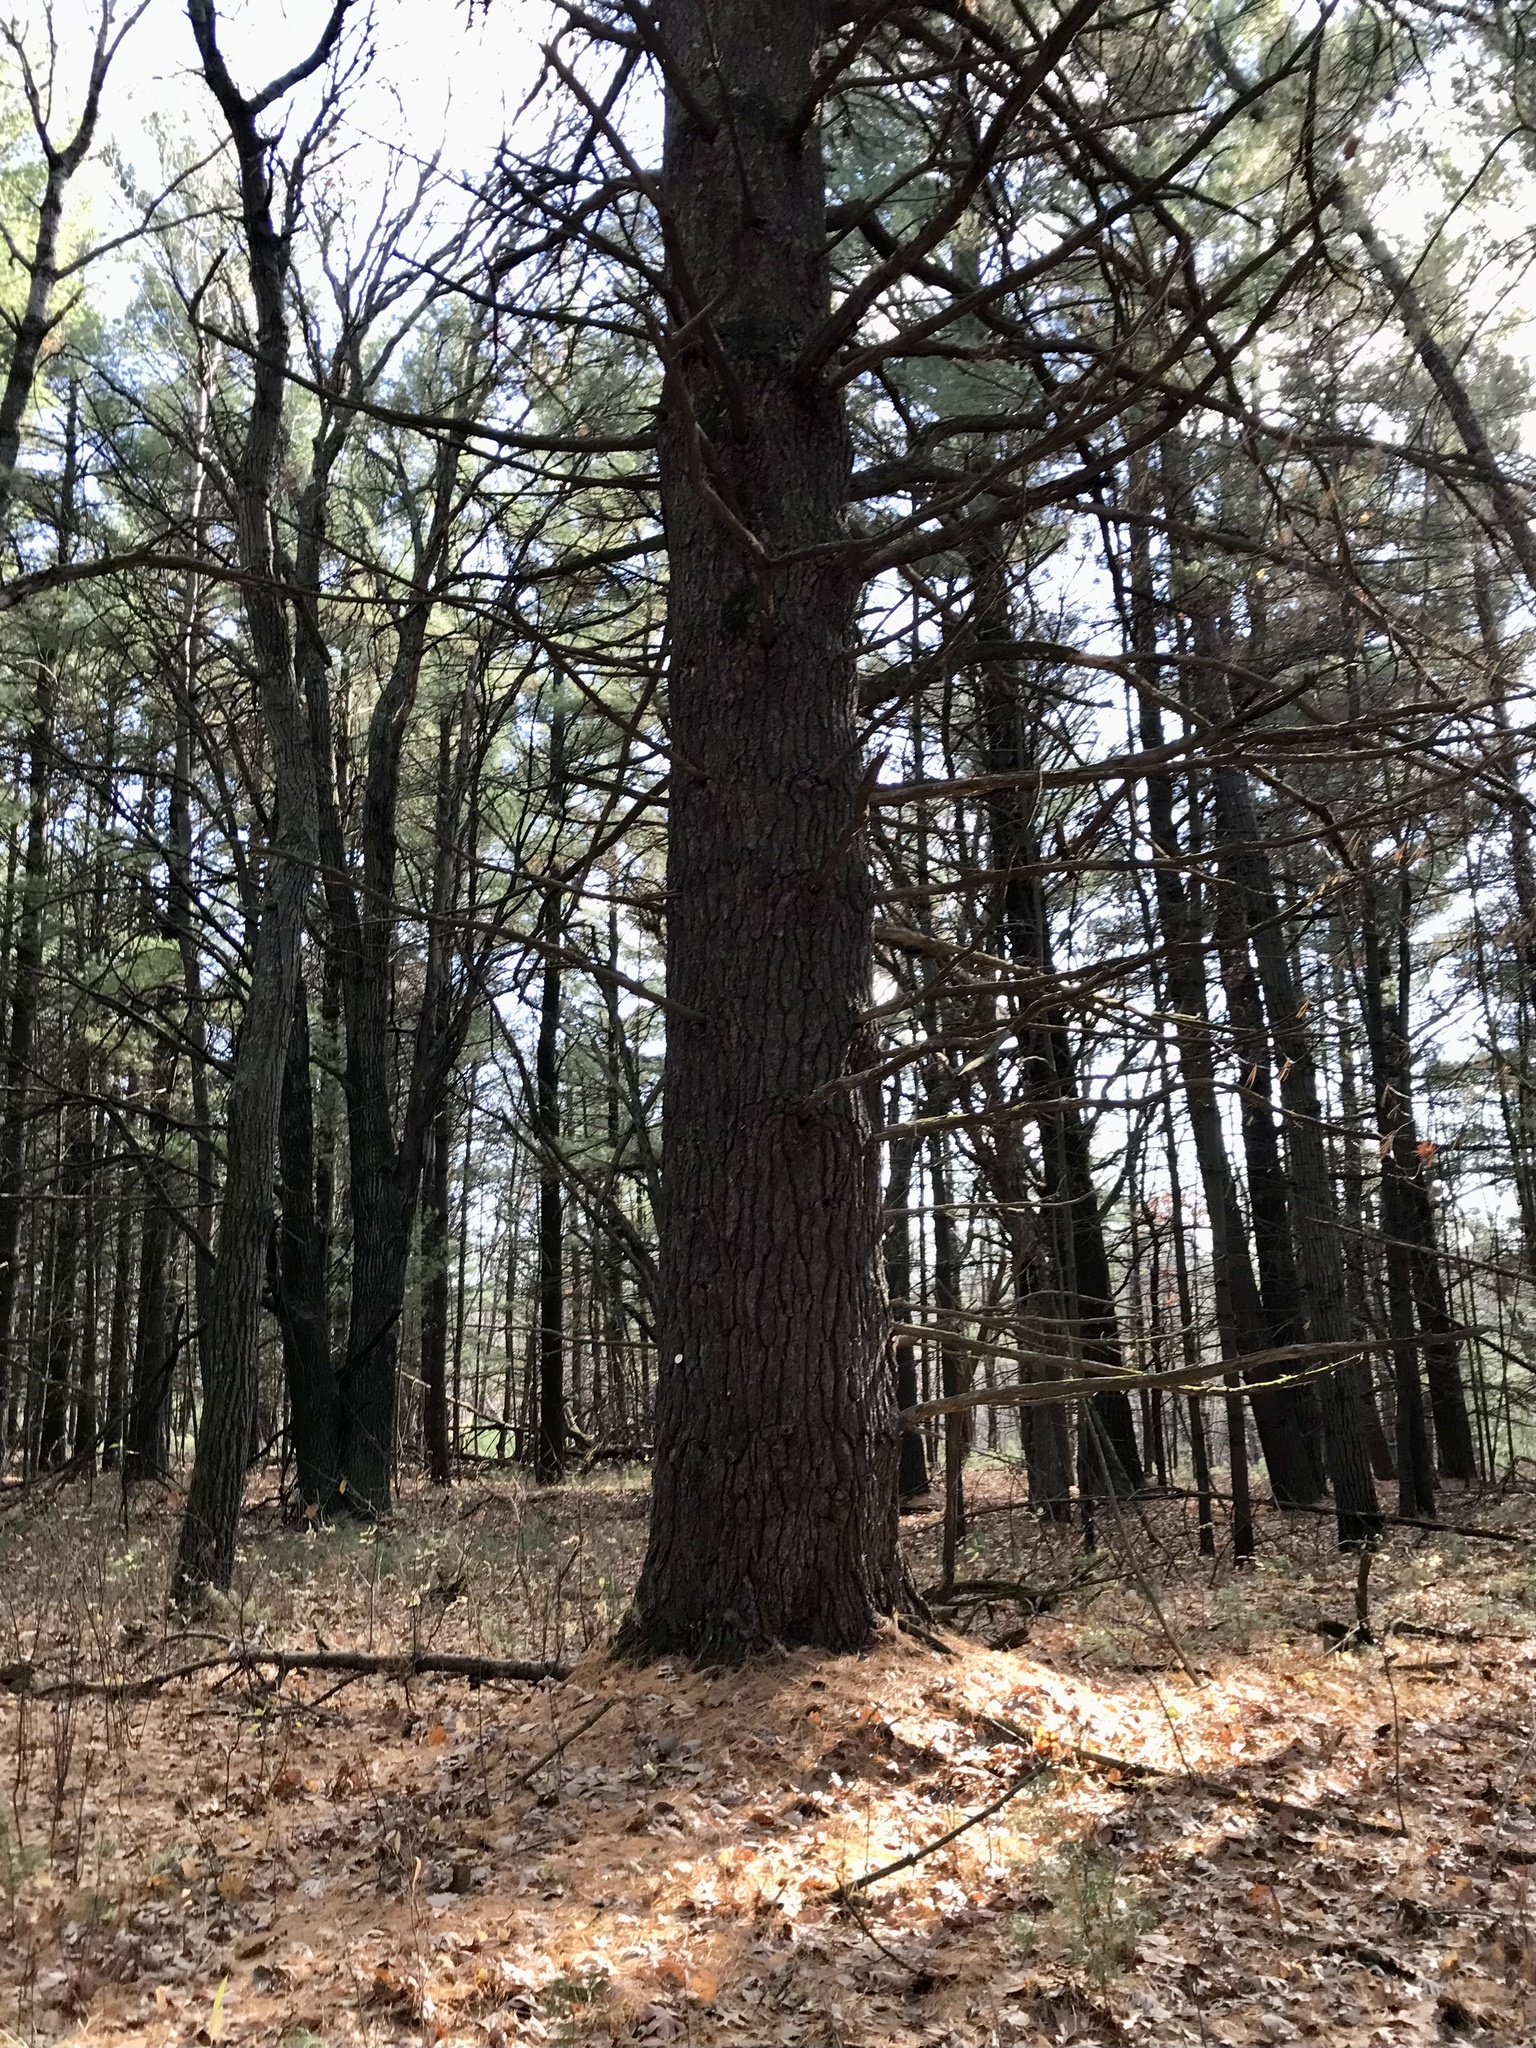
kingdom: Plantae
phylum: Tracheophyta
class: Pinopsida
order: Pinales
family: Pinaceae
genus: Pinus
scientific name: Pinus strobus
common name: Weymouth pine
